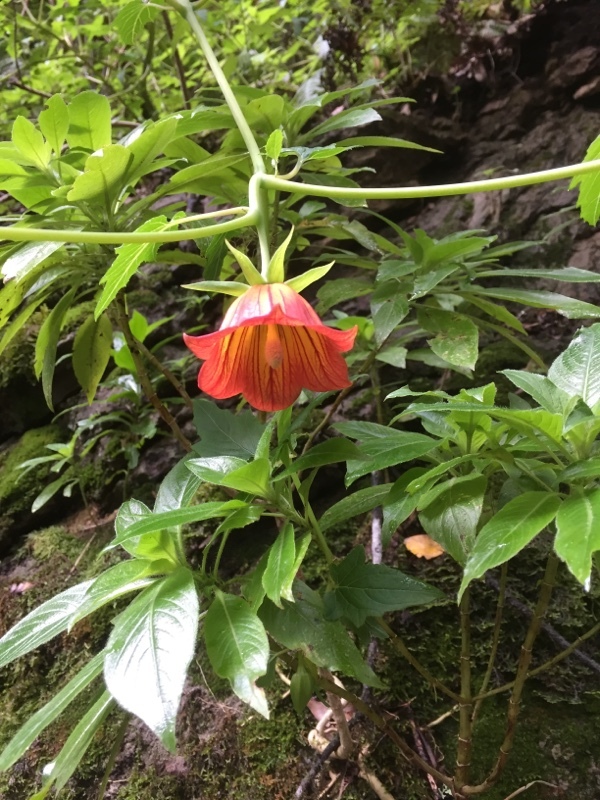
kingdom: Plantae
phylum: Tracheophyta
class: Magnoliopsida
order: Asterales
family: Campanulaceae
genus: Canarina
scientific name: Canarina canariensis
